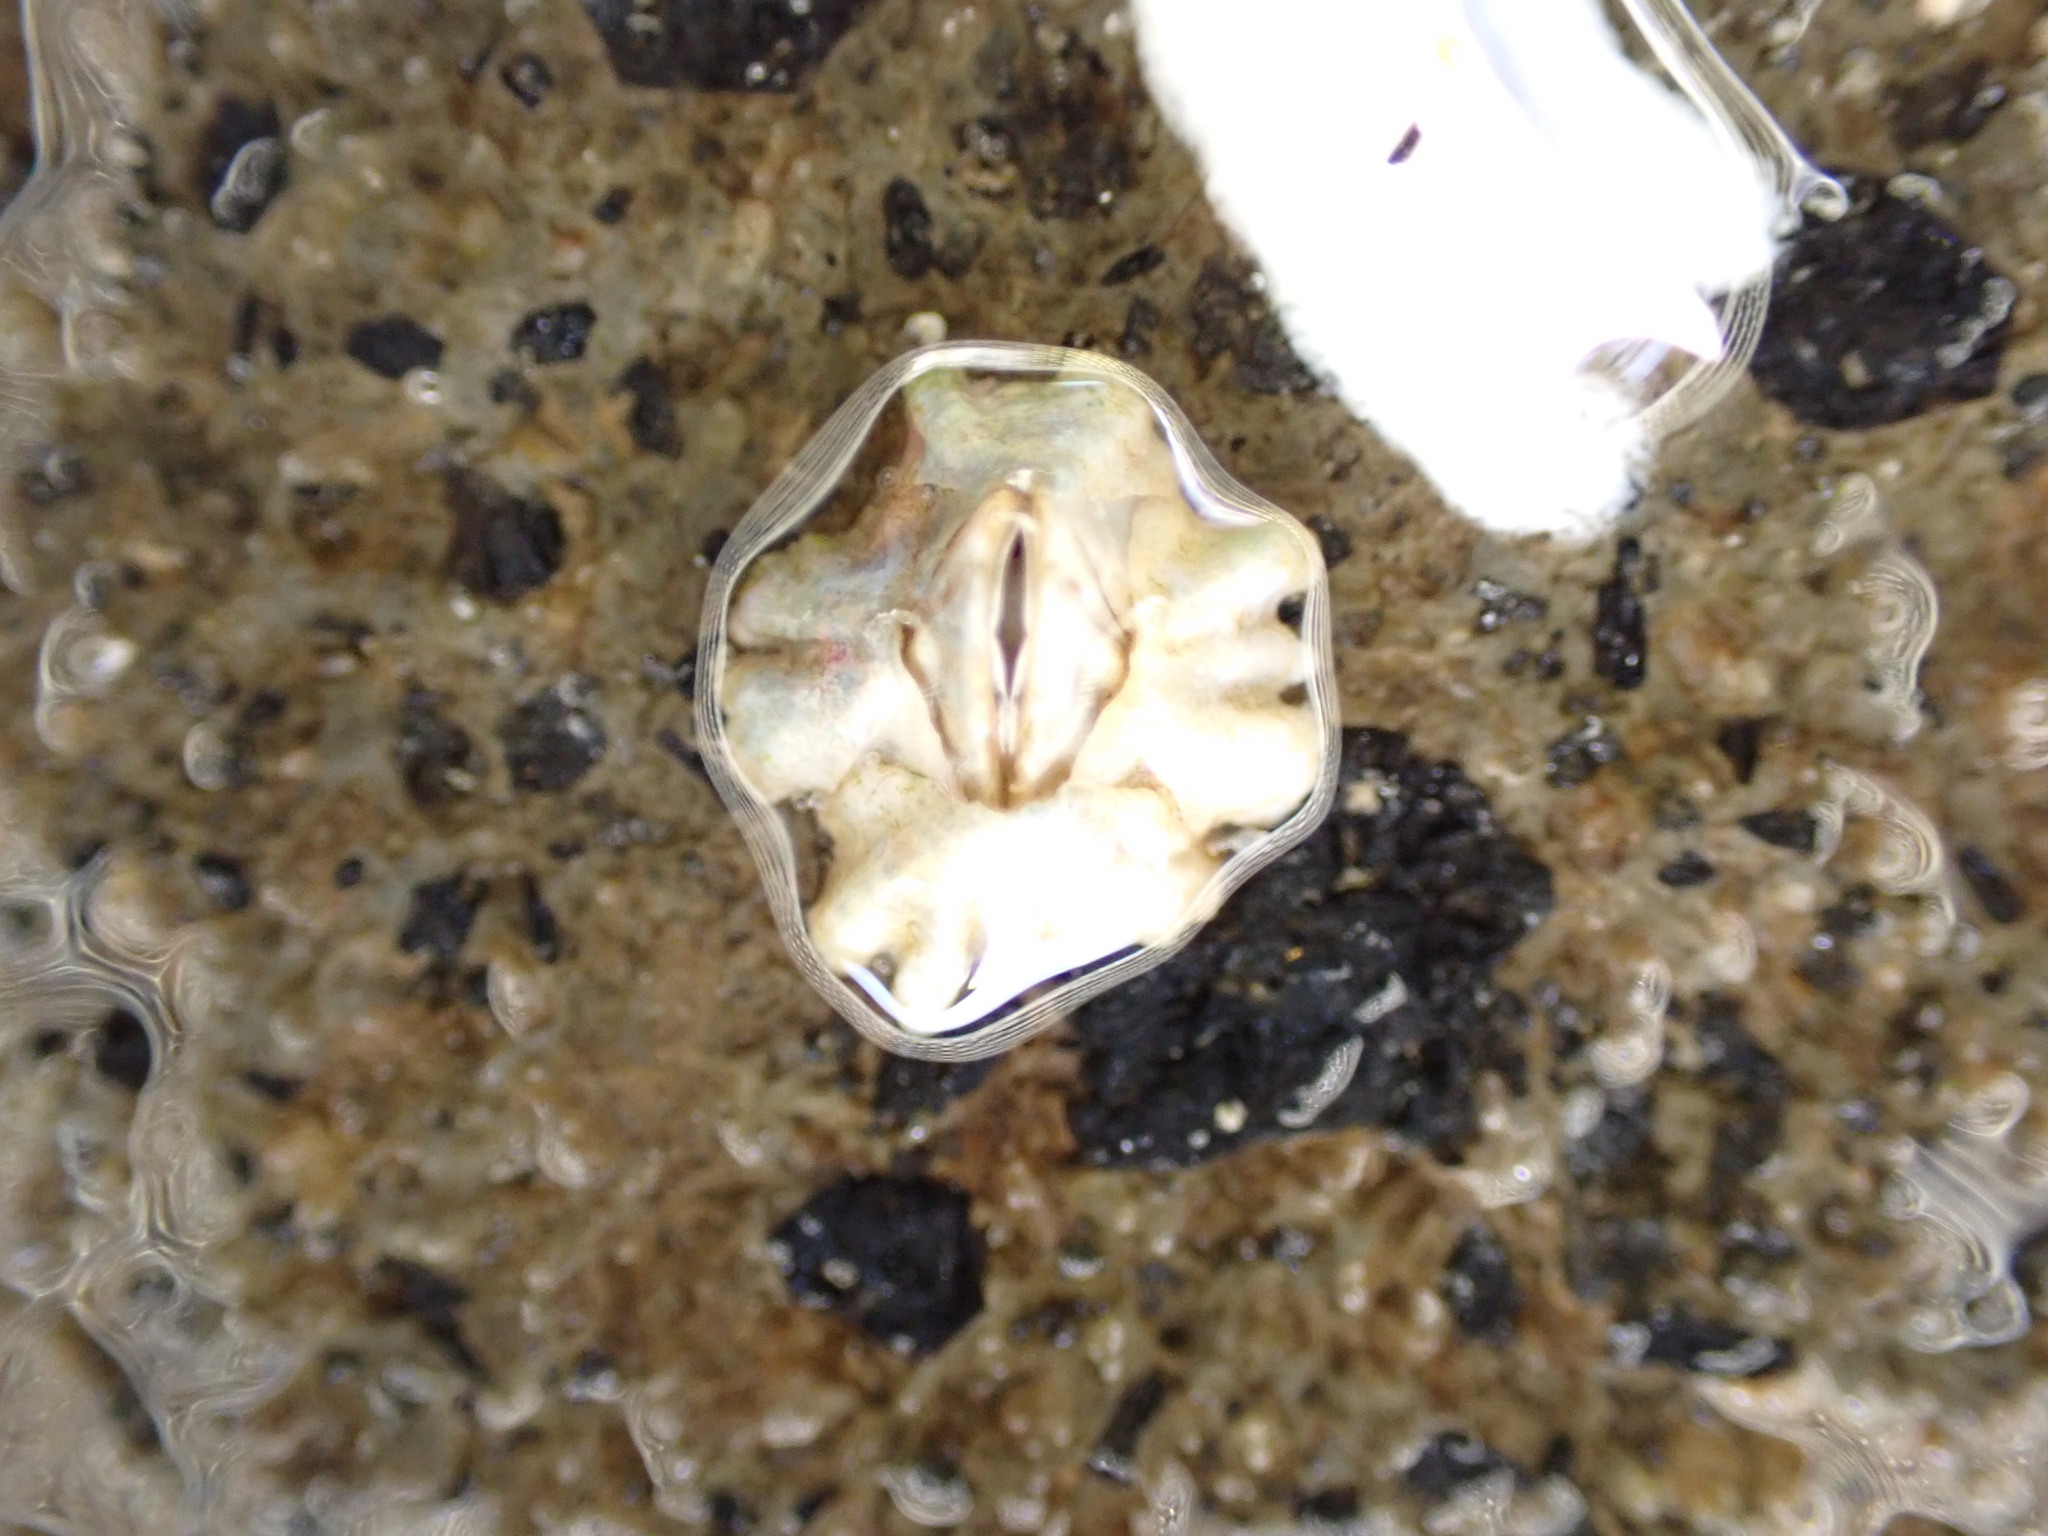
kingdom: Animalia
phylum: Arthropoda
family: Elminiidae
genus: Austrominius
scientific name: Austrominius modestus
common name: Australasian barnacle
